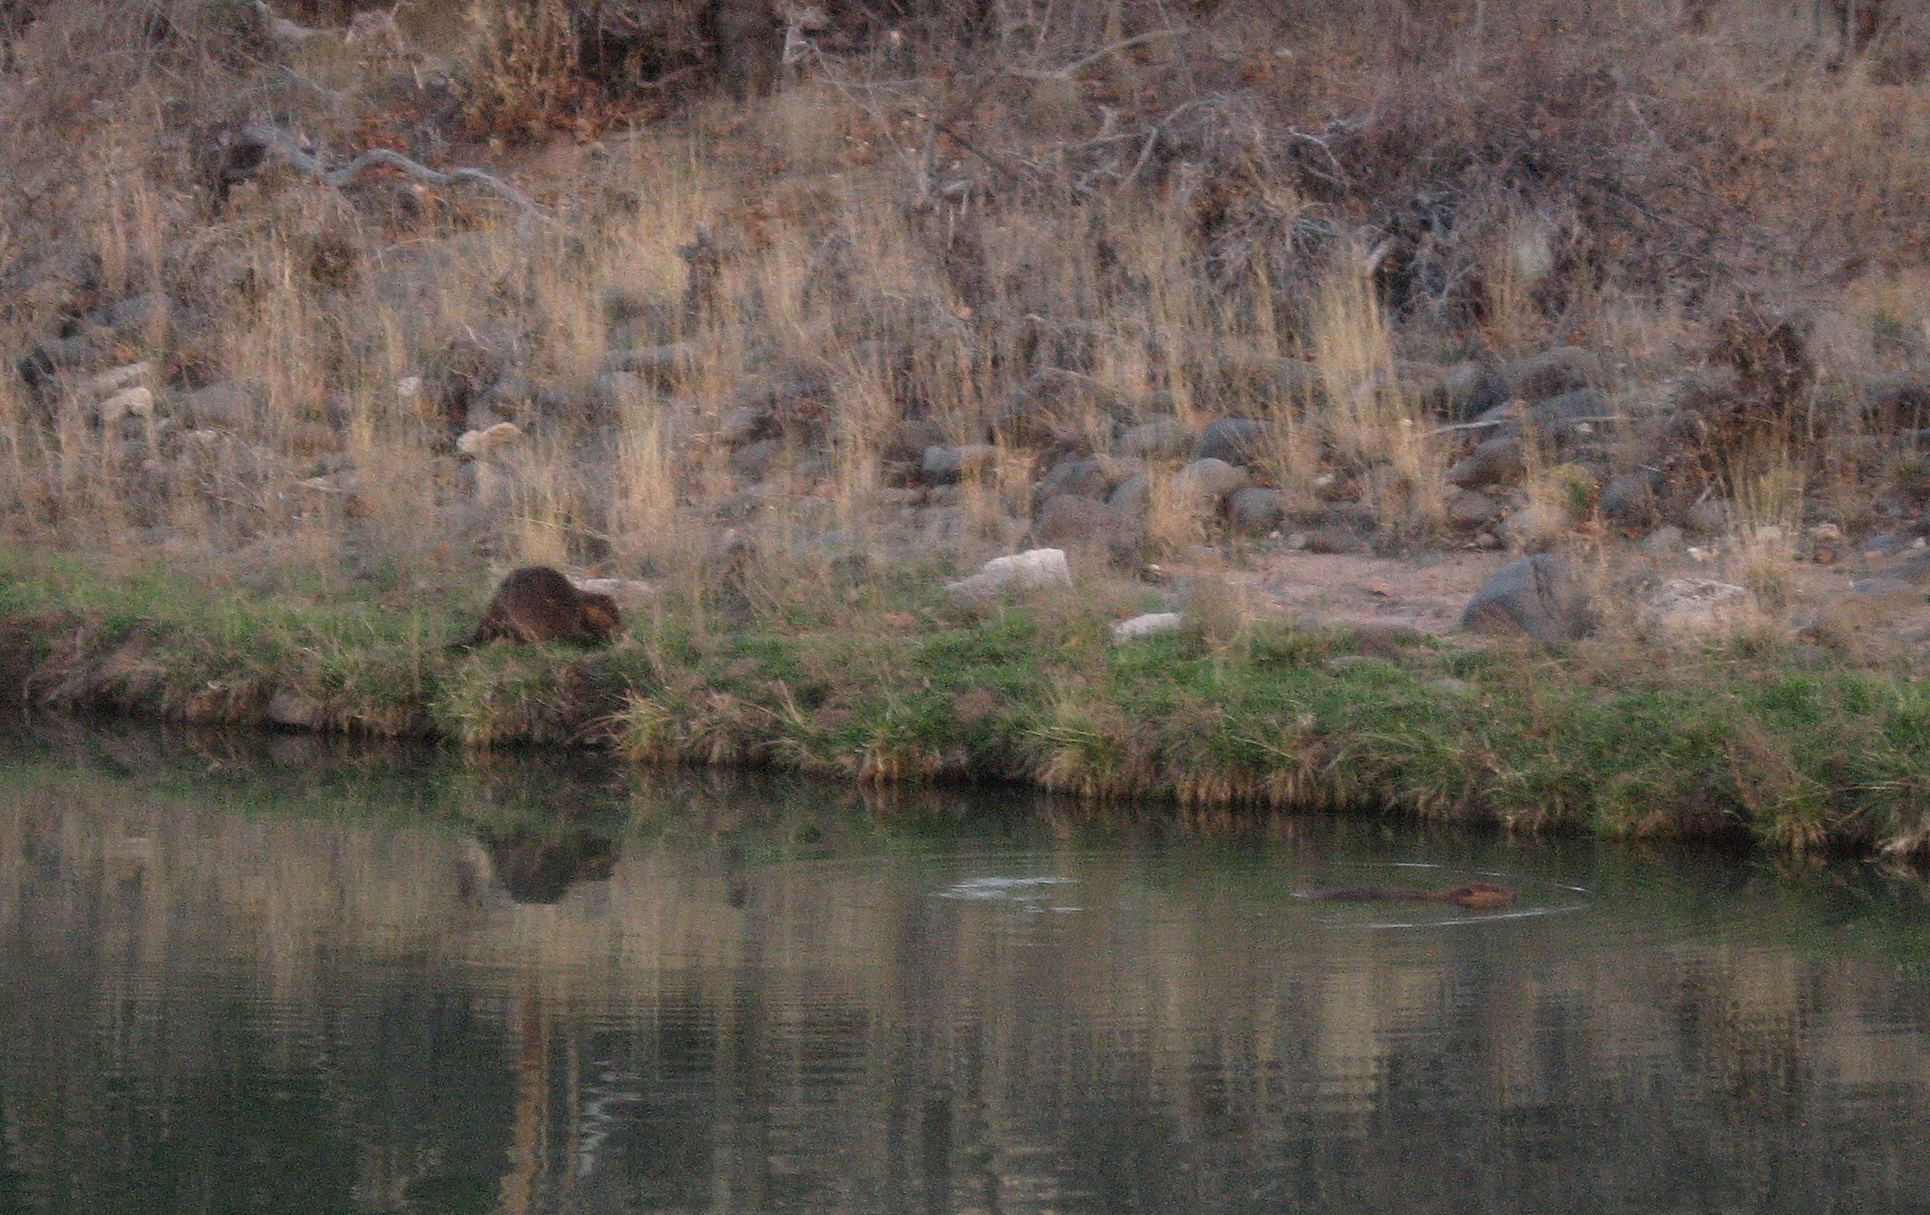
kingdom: Animalia
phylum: Chordata
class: Mammalia
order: Rodentia
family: Castoridae
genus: Castor
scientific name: Castor canadensis
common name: American beaver
